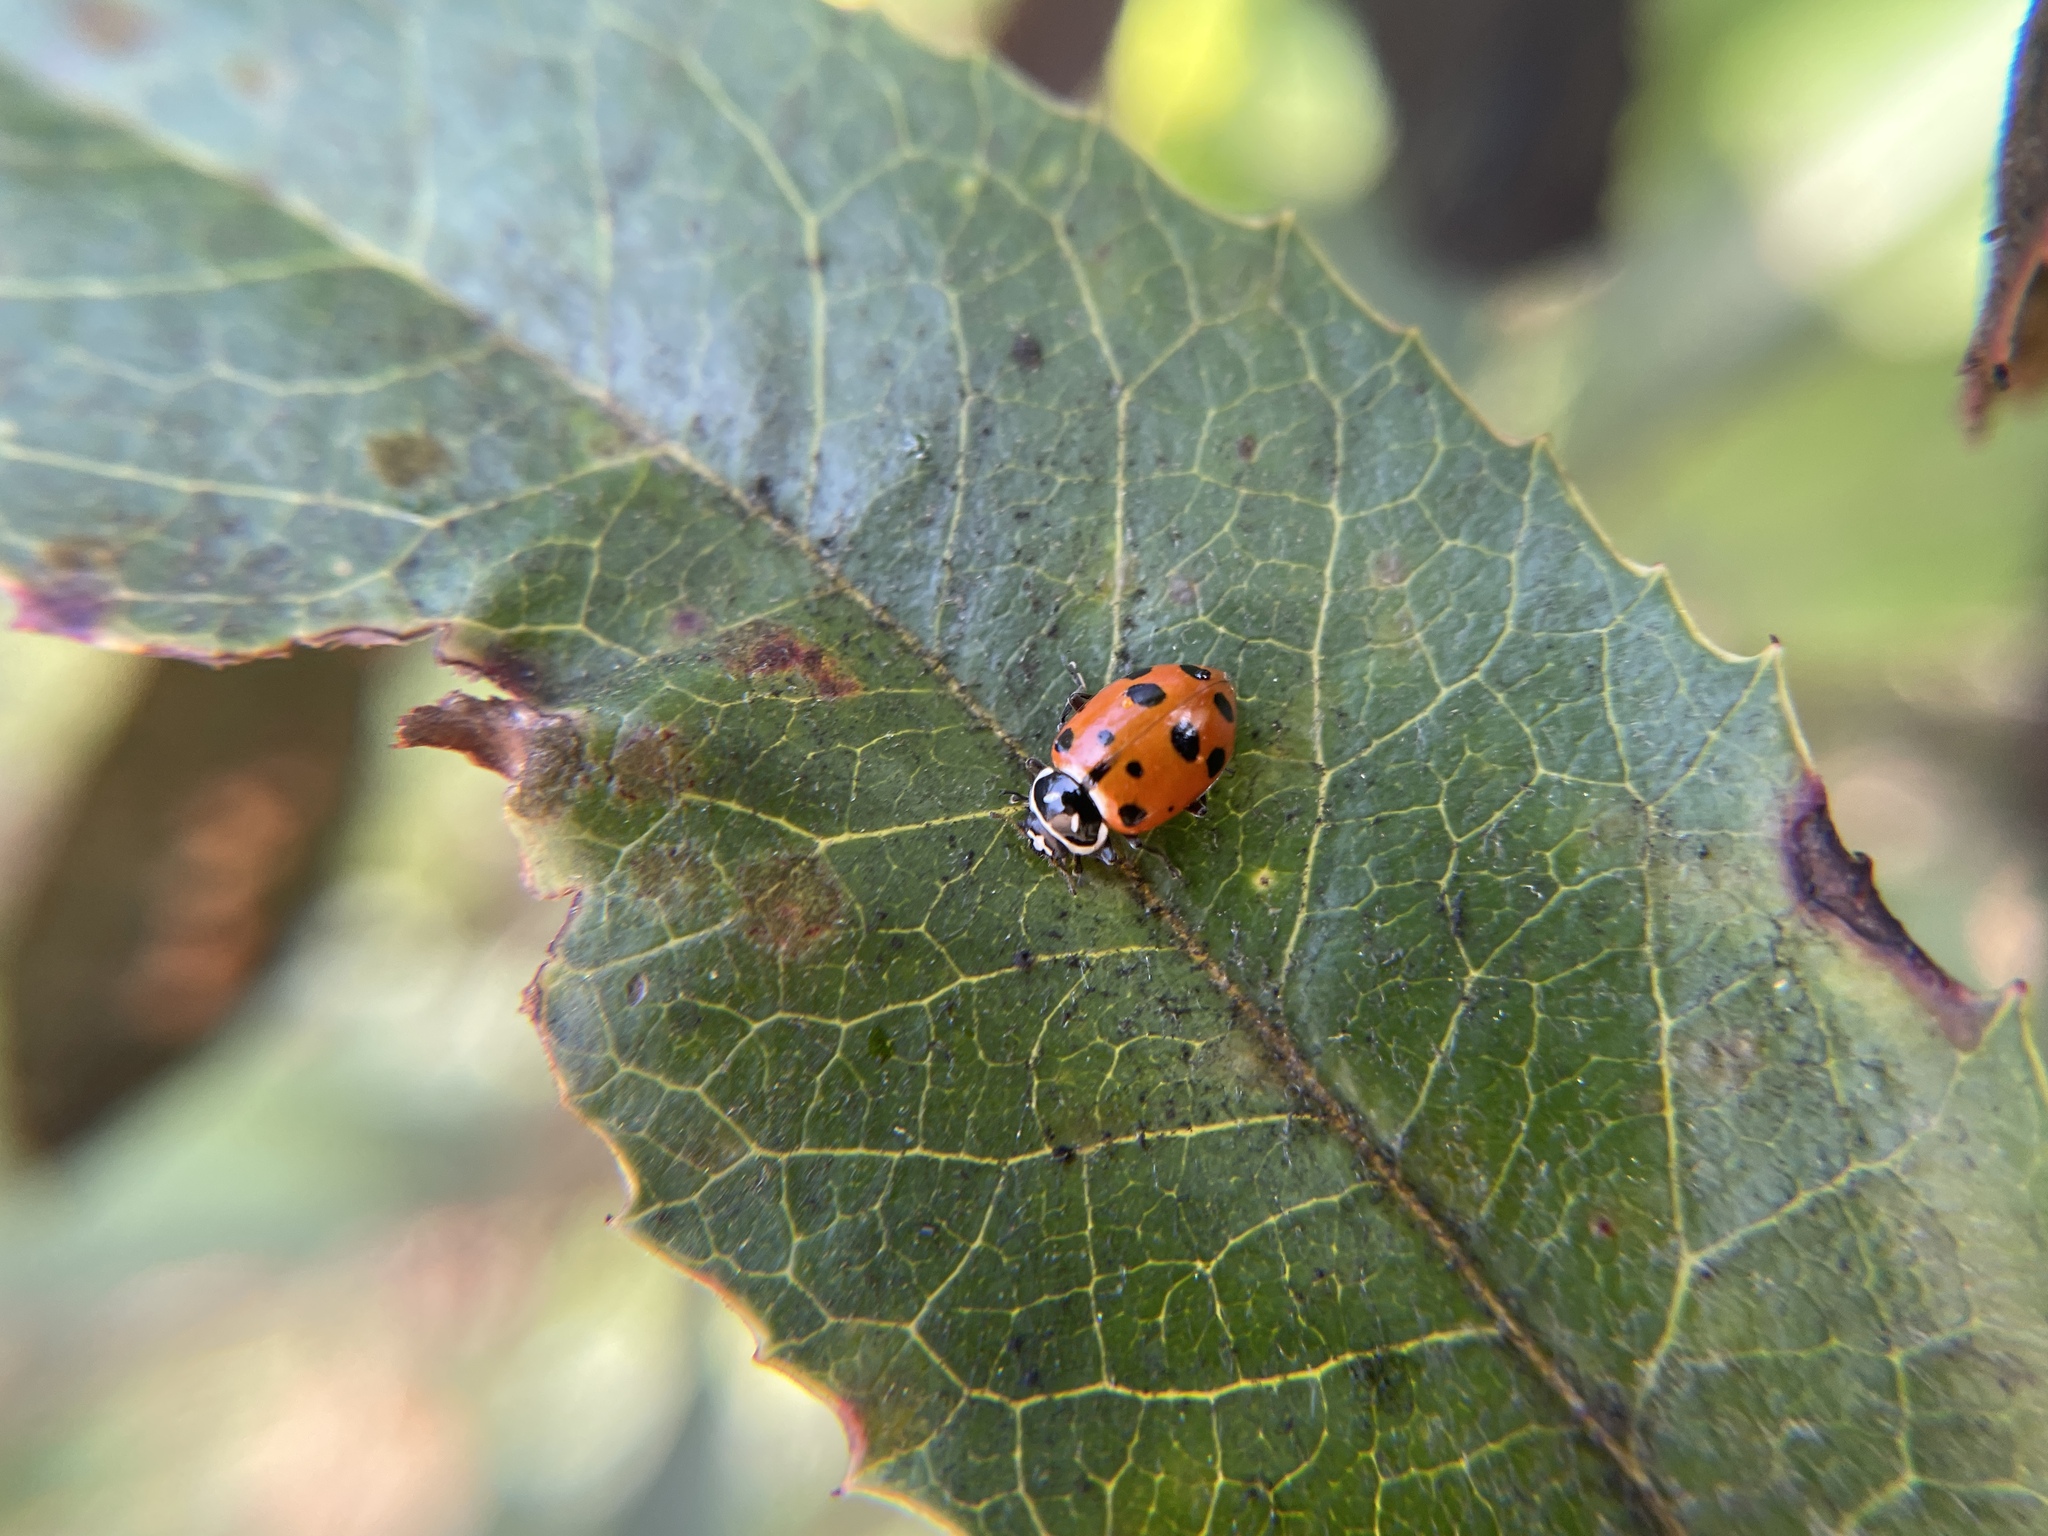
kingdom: Animalia
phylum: Arthropoda
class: Insecta
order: Coleoptera
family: Coccinellidae
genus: Hippodamia
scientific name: Hippodamia convergens
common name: Convergent lady beetle
